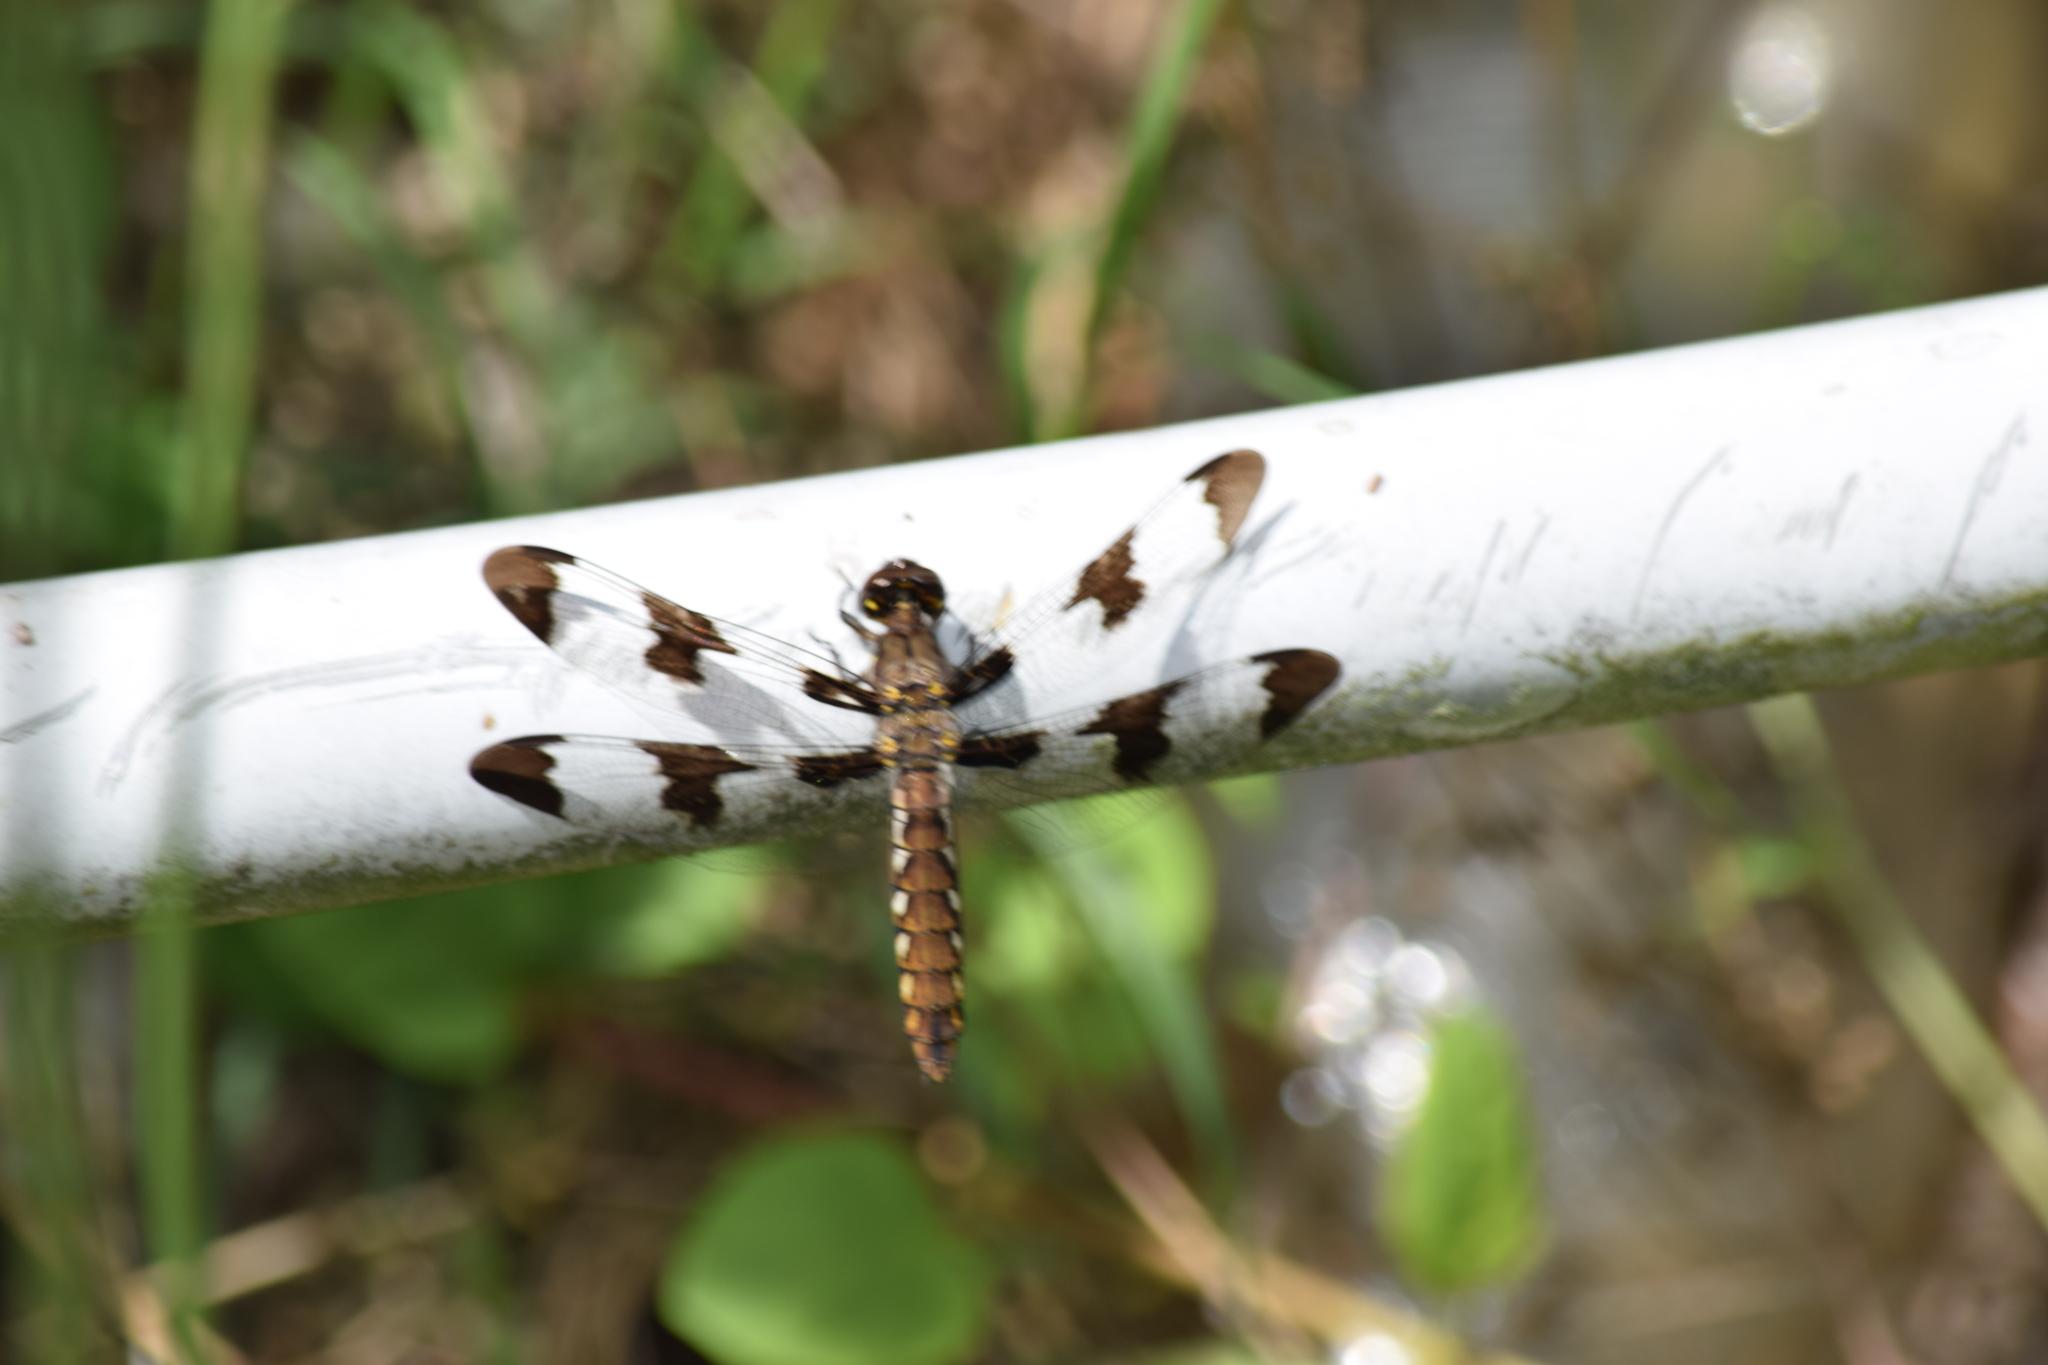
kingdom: Animalia
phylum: Arthropoda
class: Insecta
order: Odonata
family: Libellulidae
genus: Plathemis
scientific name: Plathemis lydia
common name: Common whitetail
